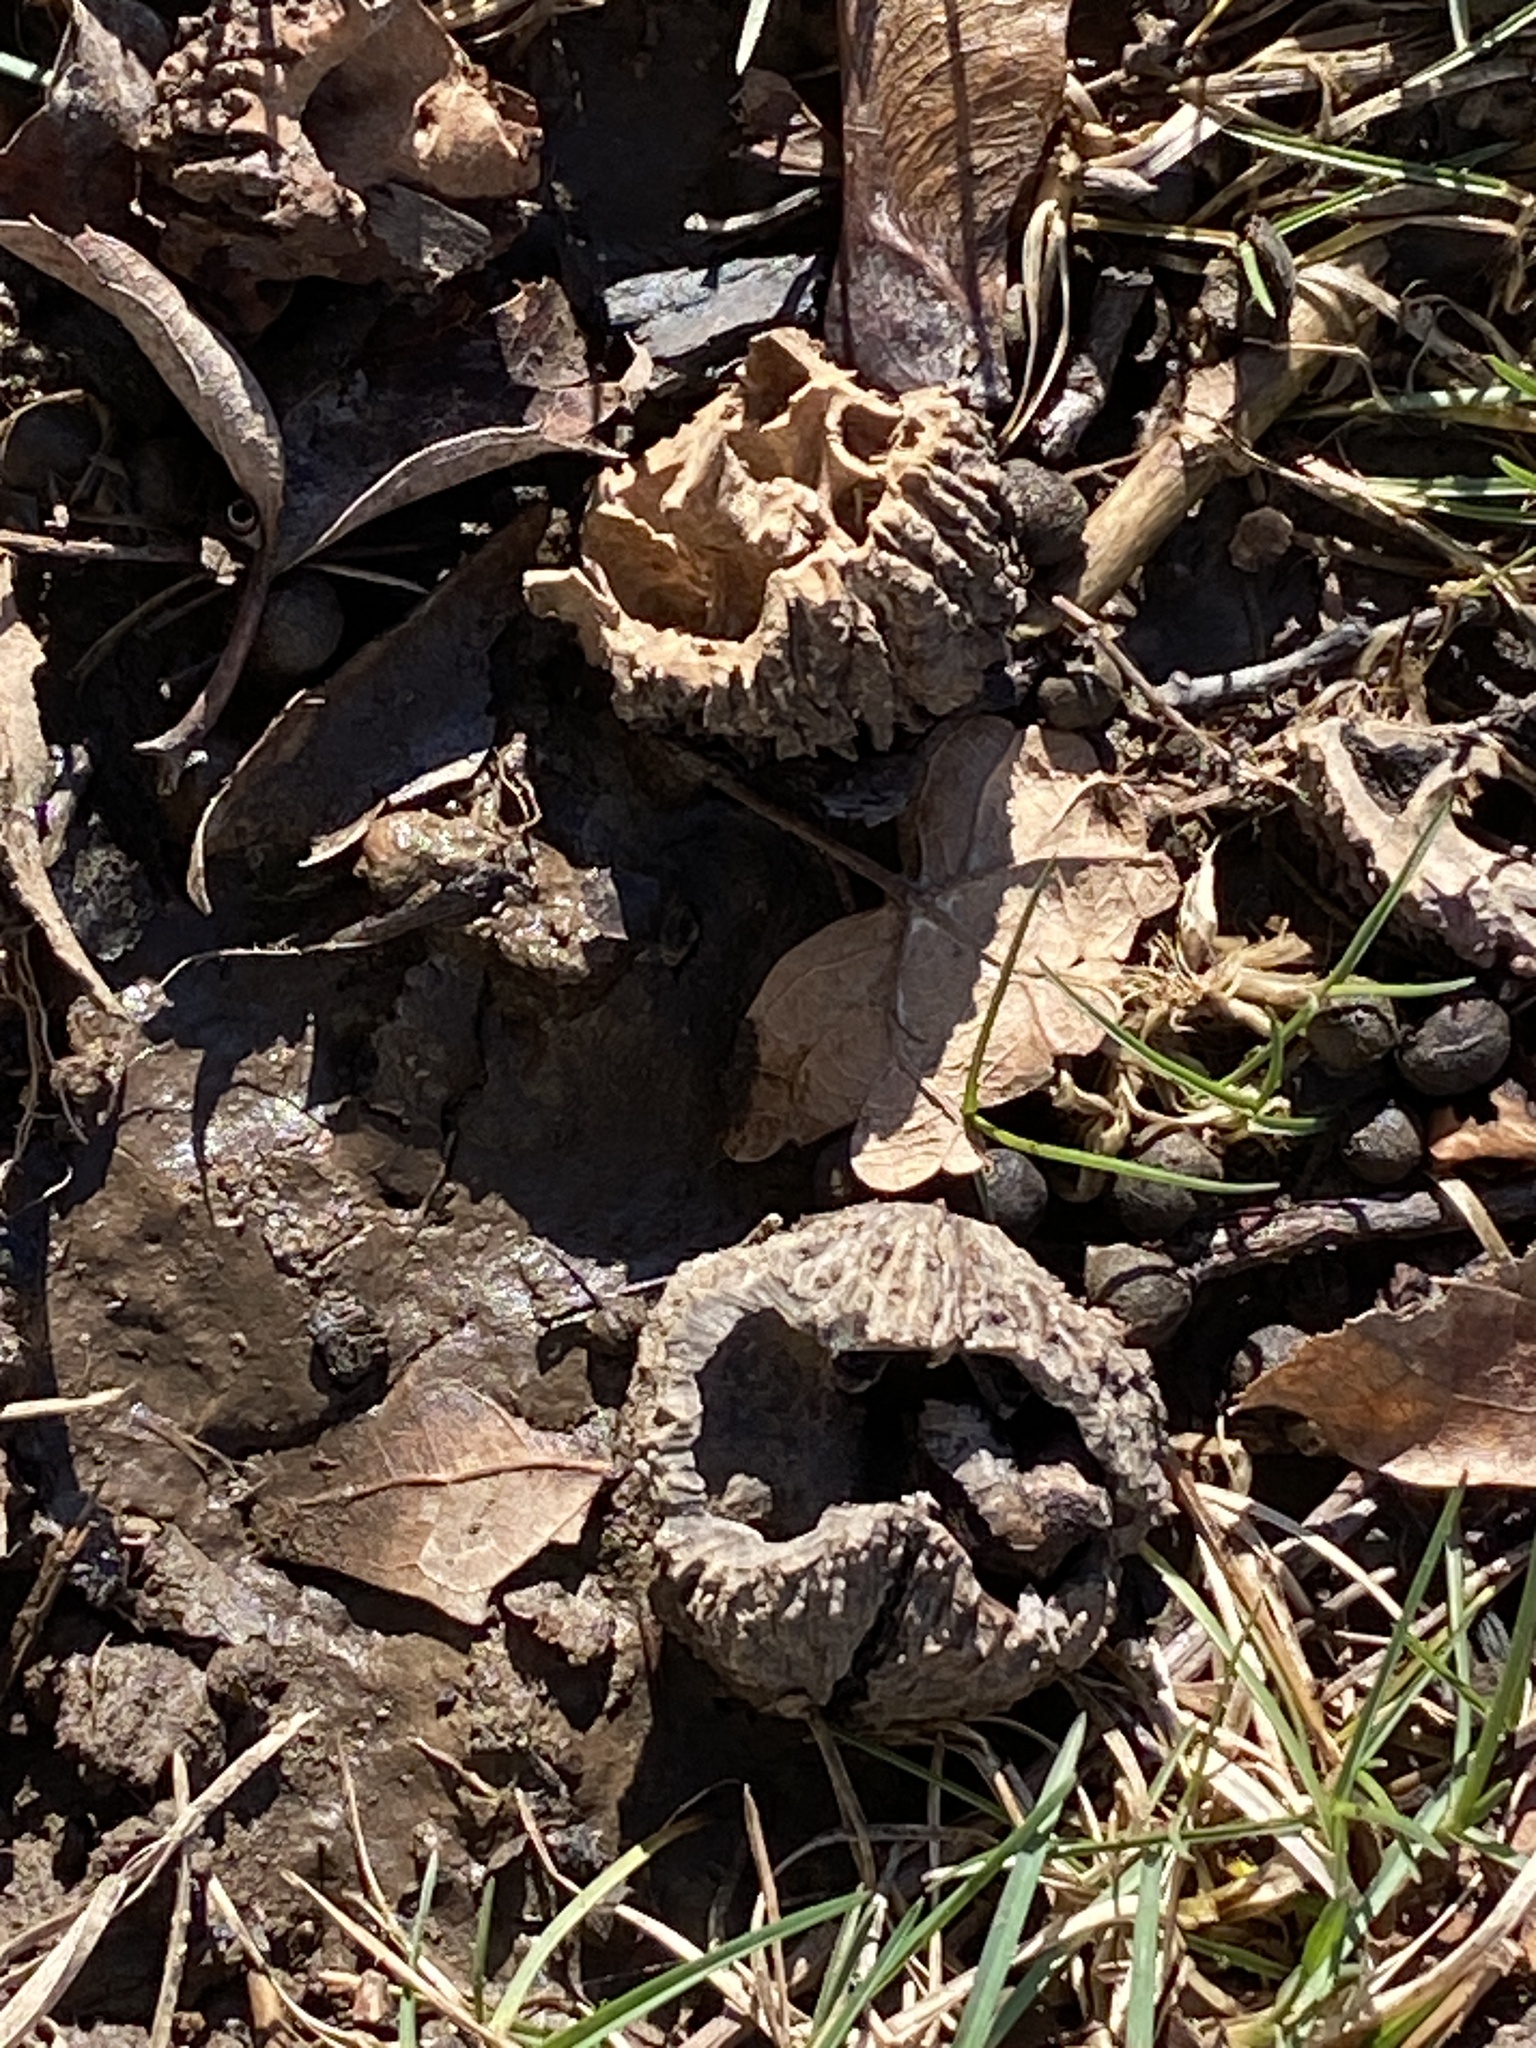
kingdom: Plantae
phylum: Tracheophyta
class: Magnoliopsida
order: Fagales
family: Juglandaceae
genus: Juglans
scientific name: Juglans nigra
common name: Black walnut
